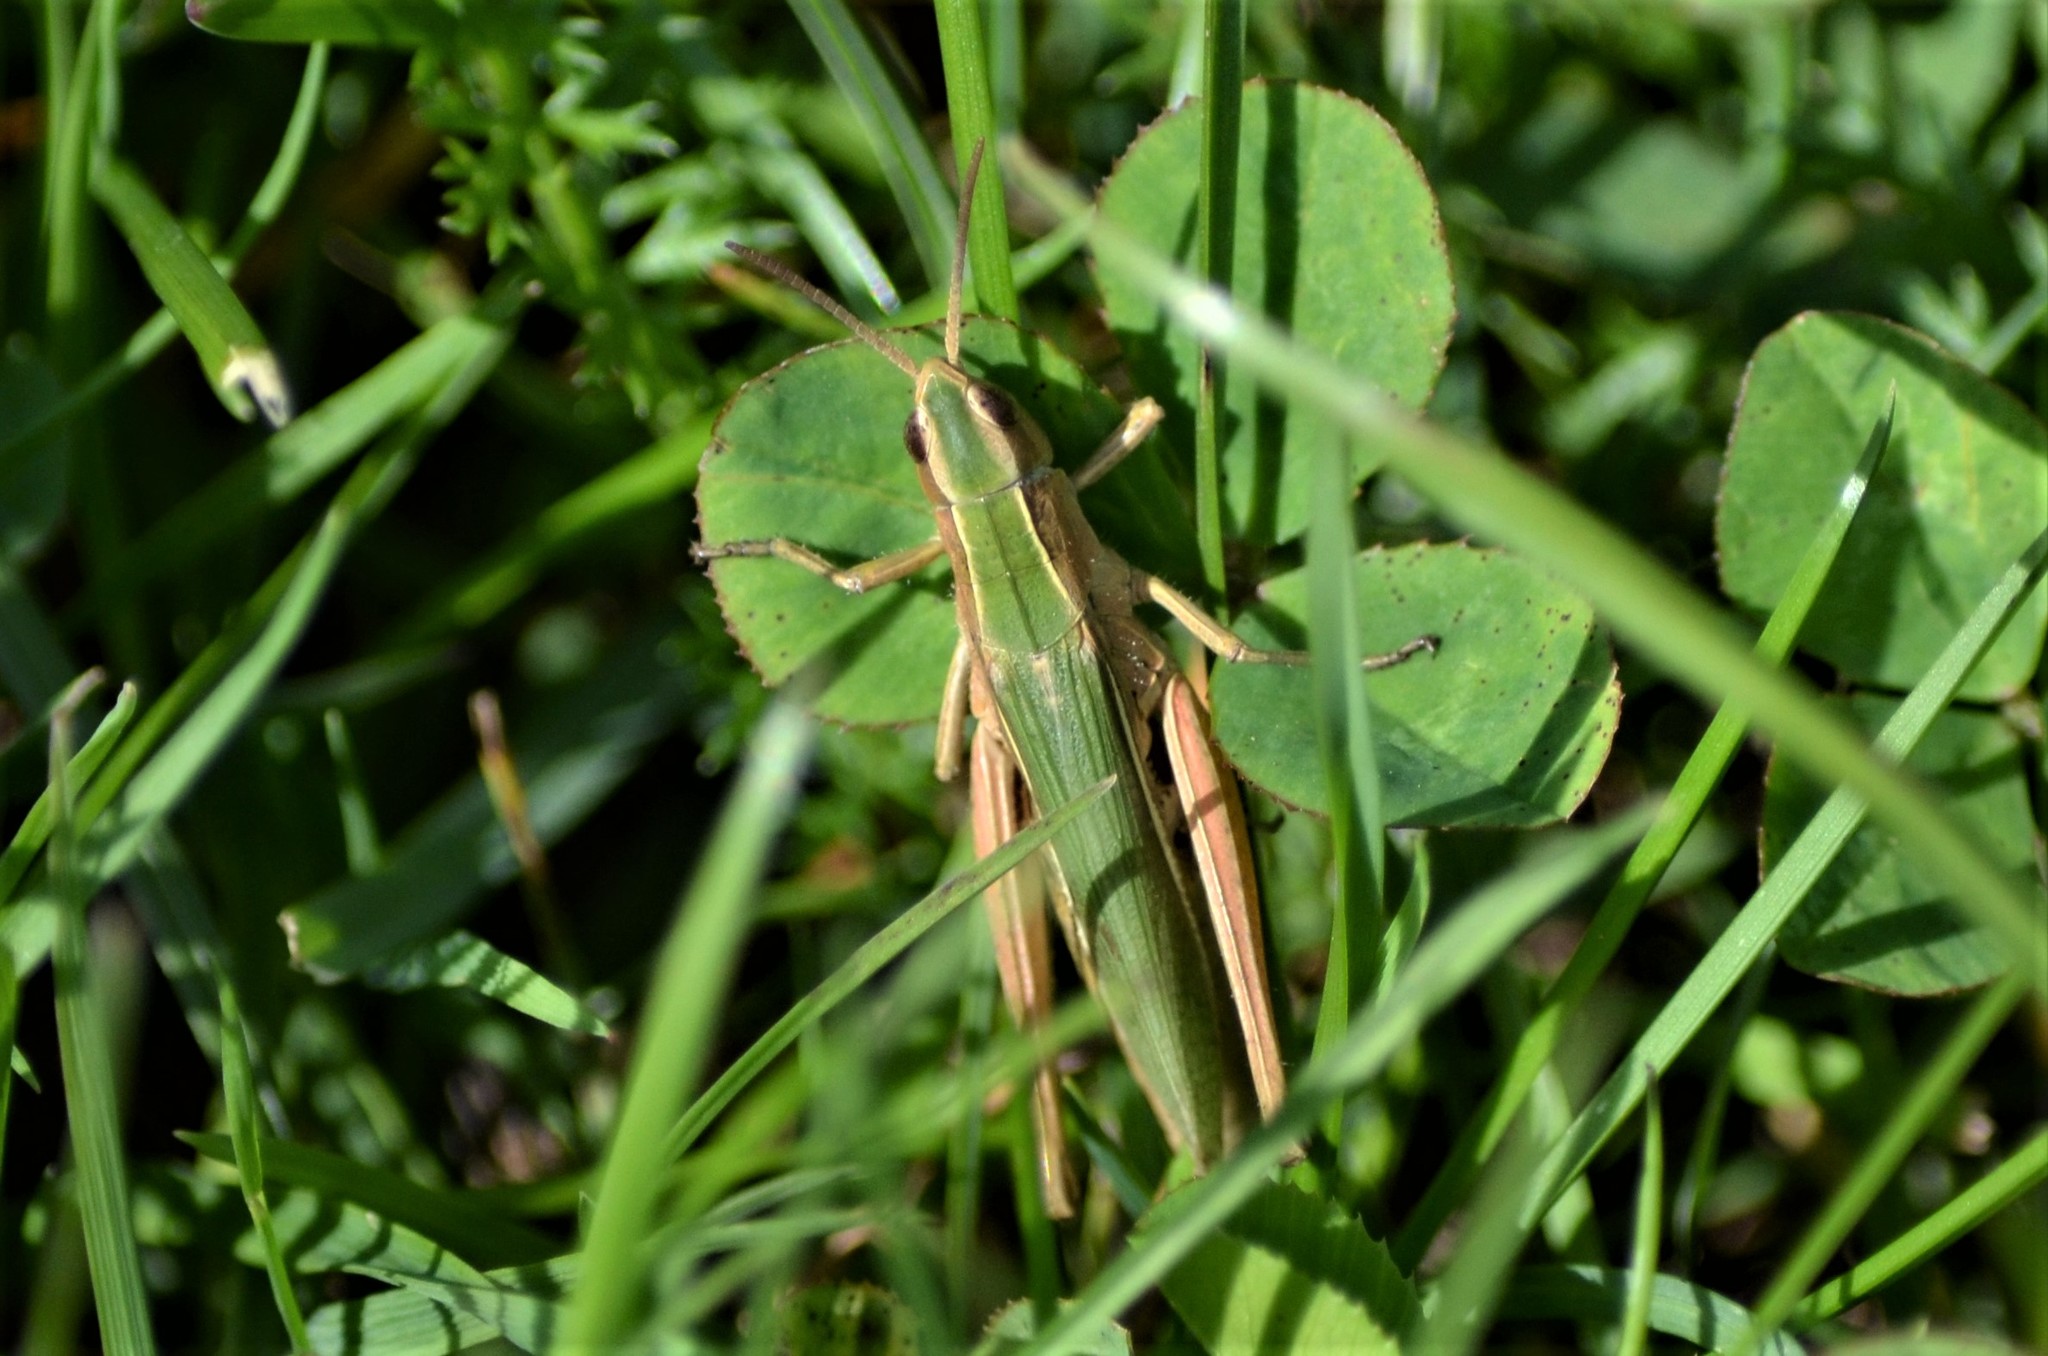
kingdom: Animalia
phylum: Arthropoda
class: Insecta
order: Orthoptera
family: Acrididae
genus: Chorthippus
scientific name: Chorthippus albomarginatus
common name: Lesser marsh grasshopper
